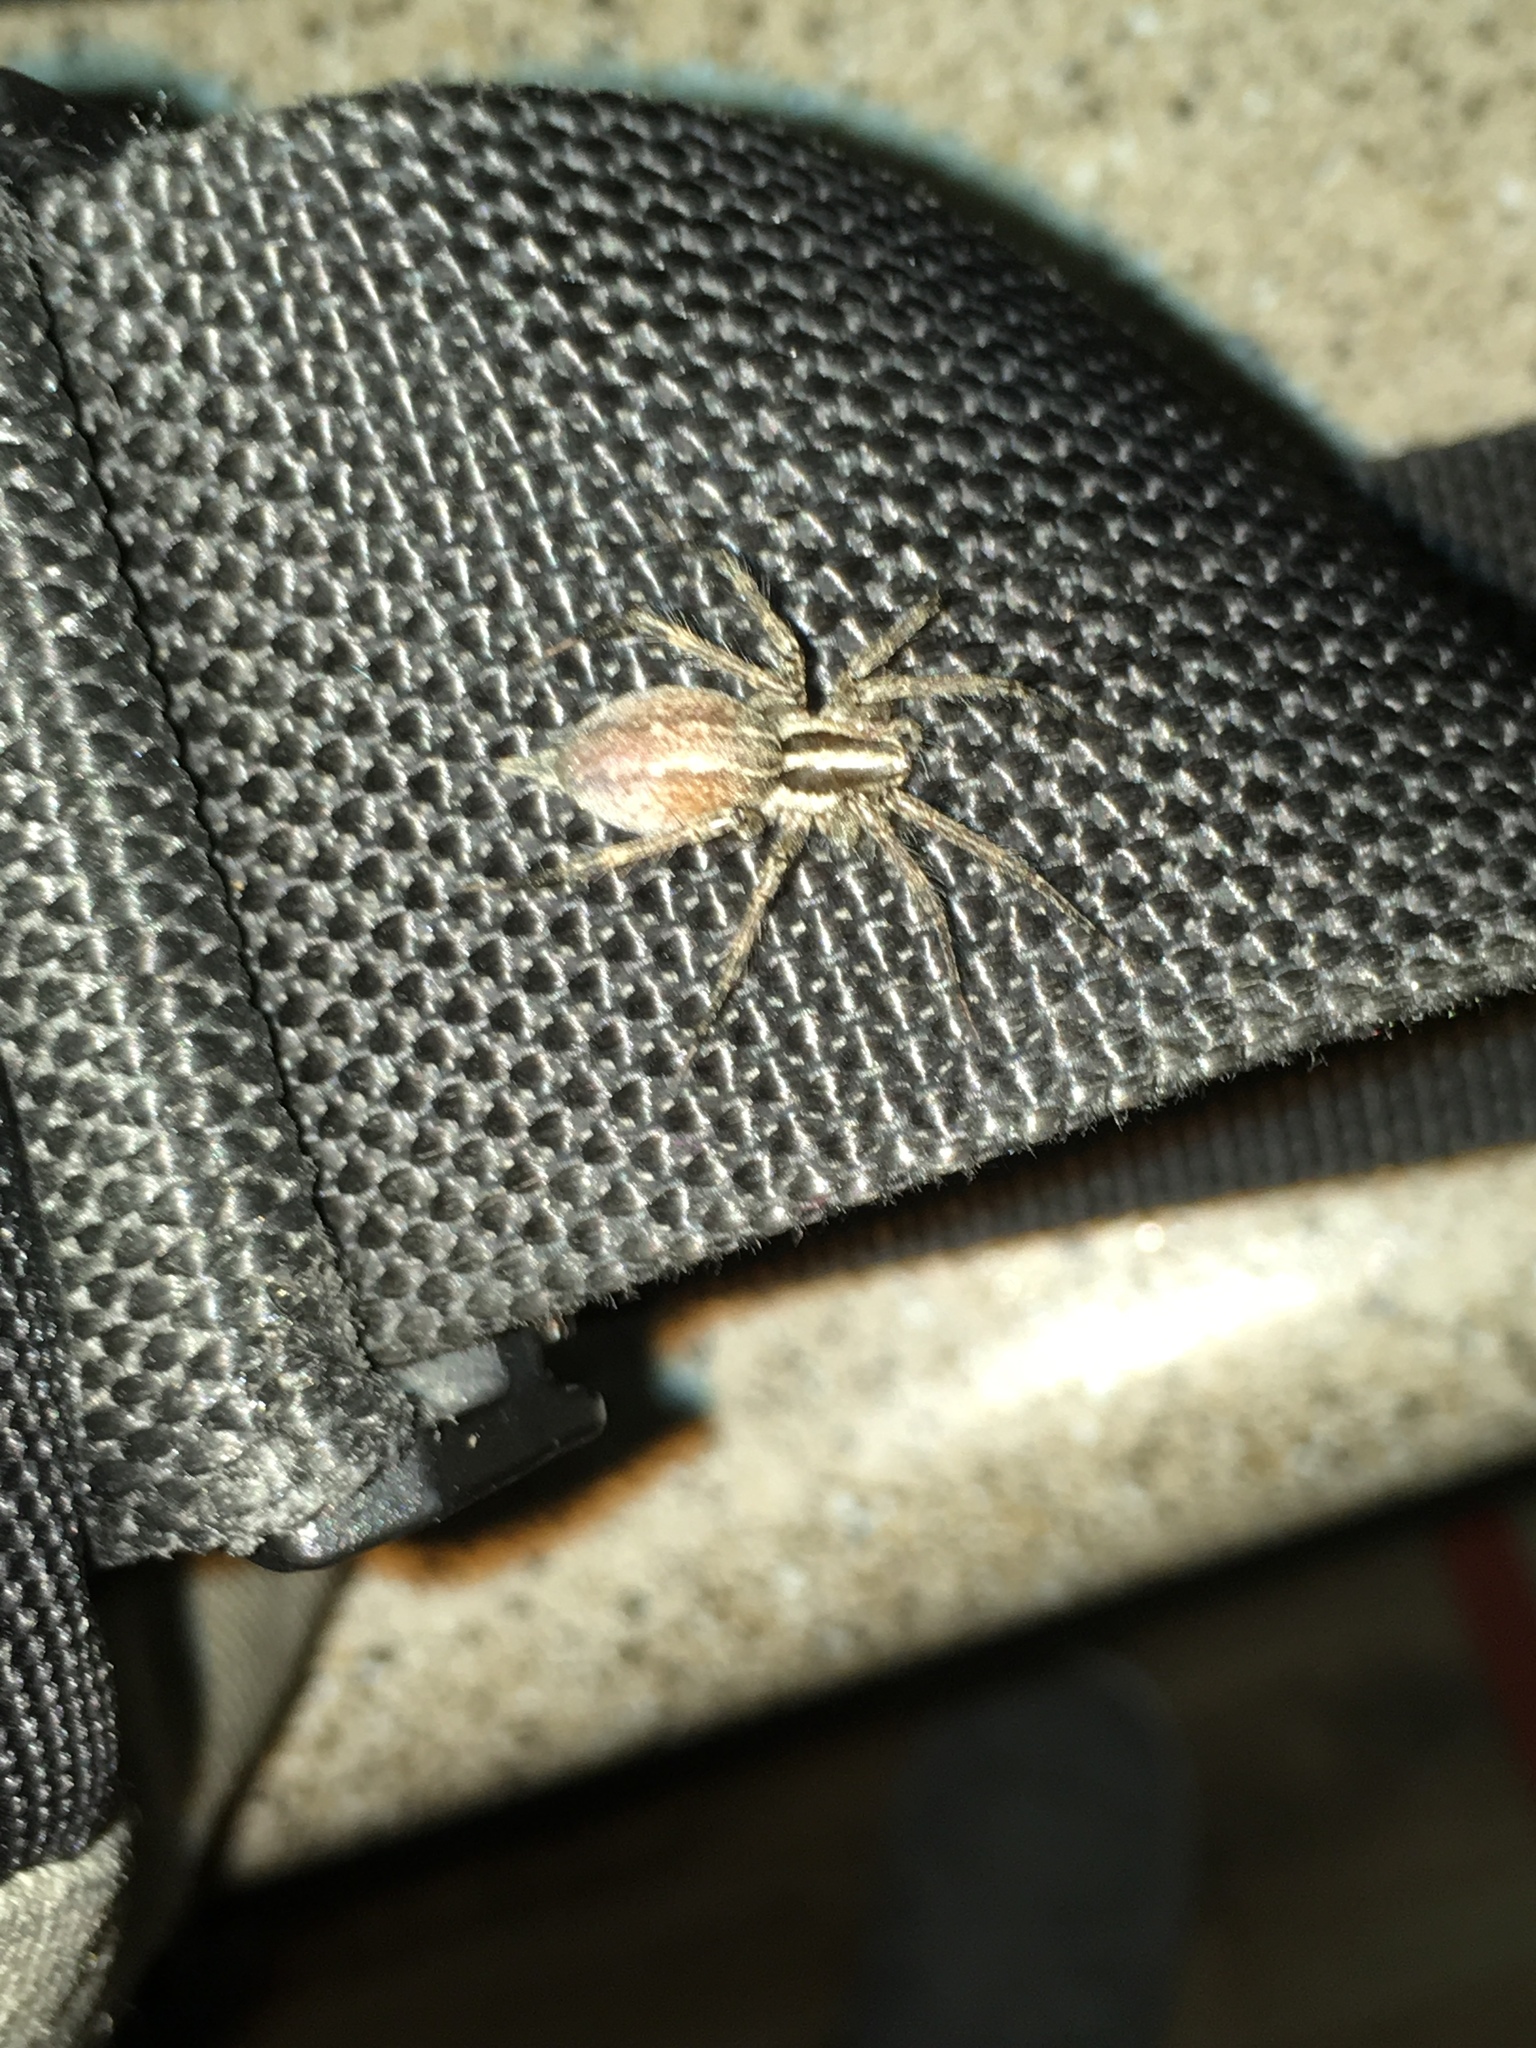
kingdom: Animalia
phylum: Arthropoda
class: Arachnida
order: Araneae
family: Agelenidae
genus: Agelenopsis
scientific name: Agelenopsis
